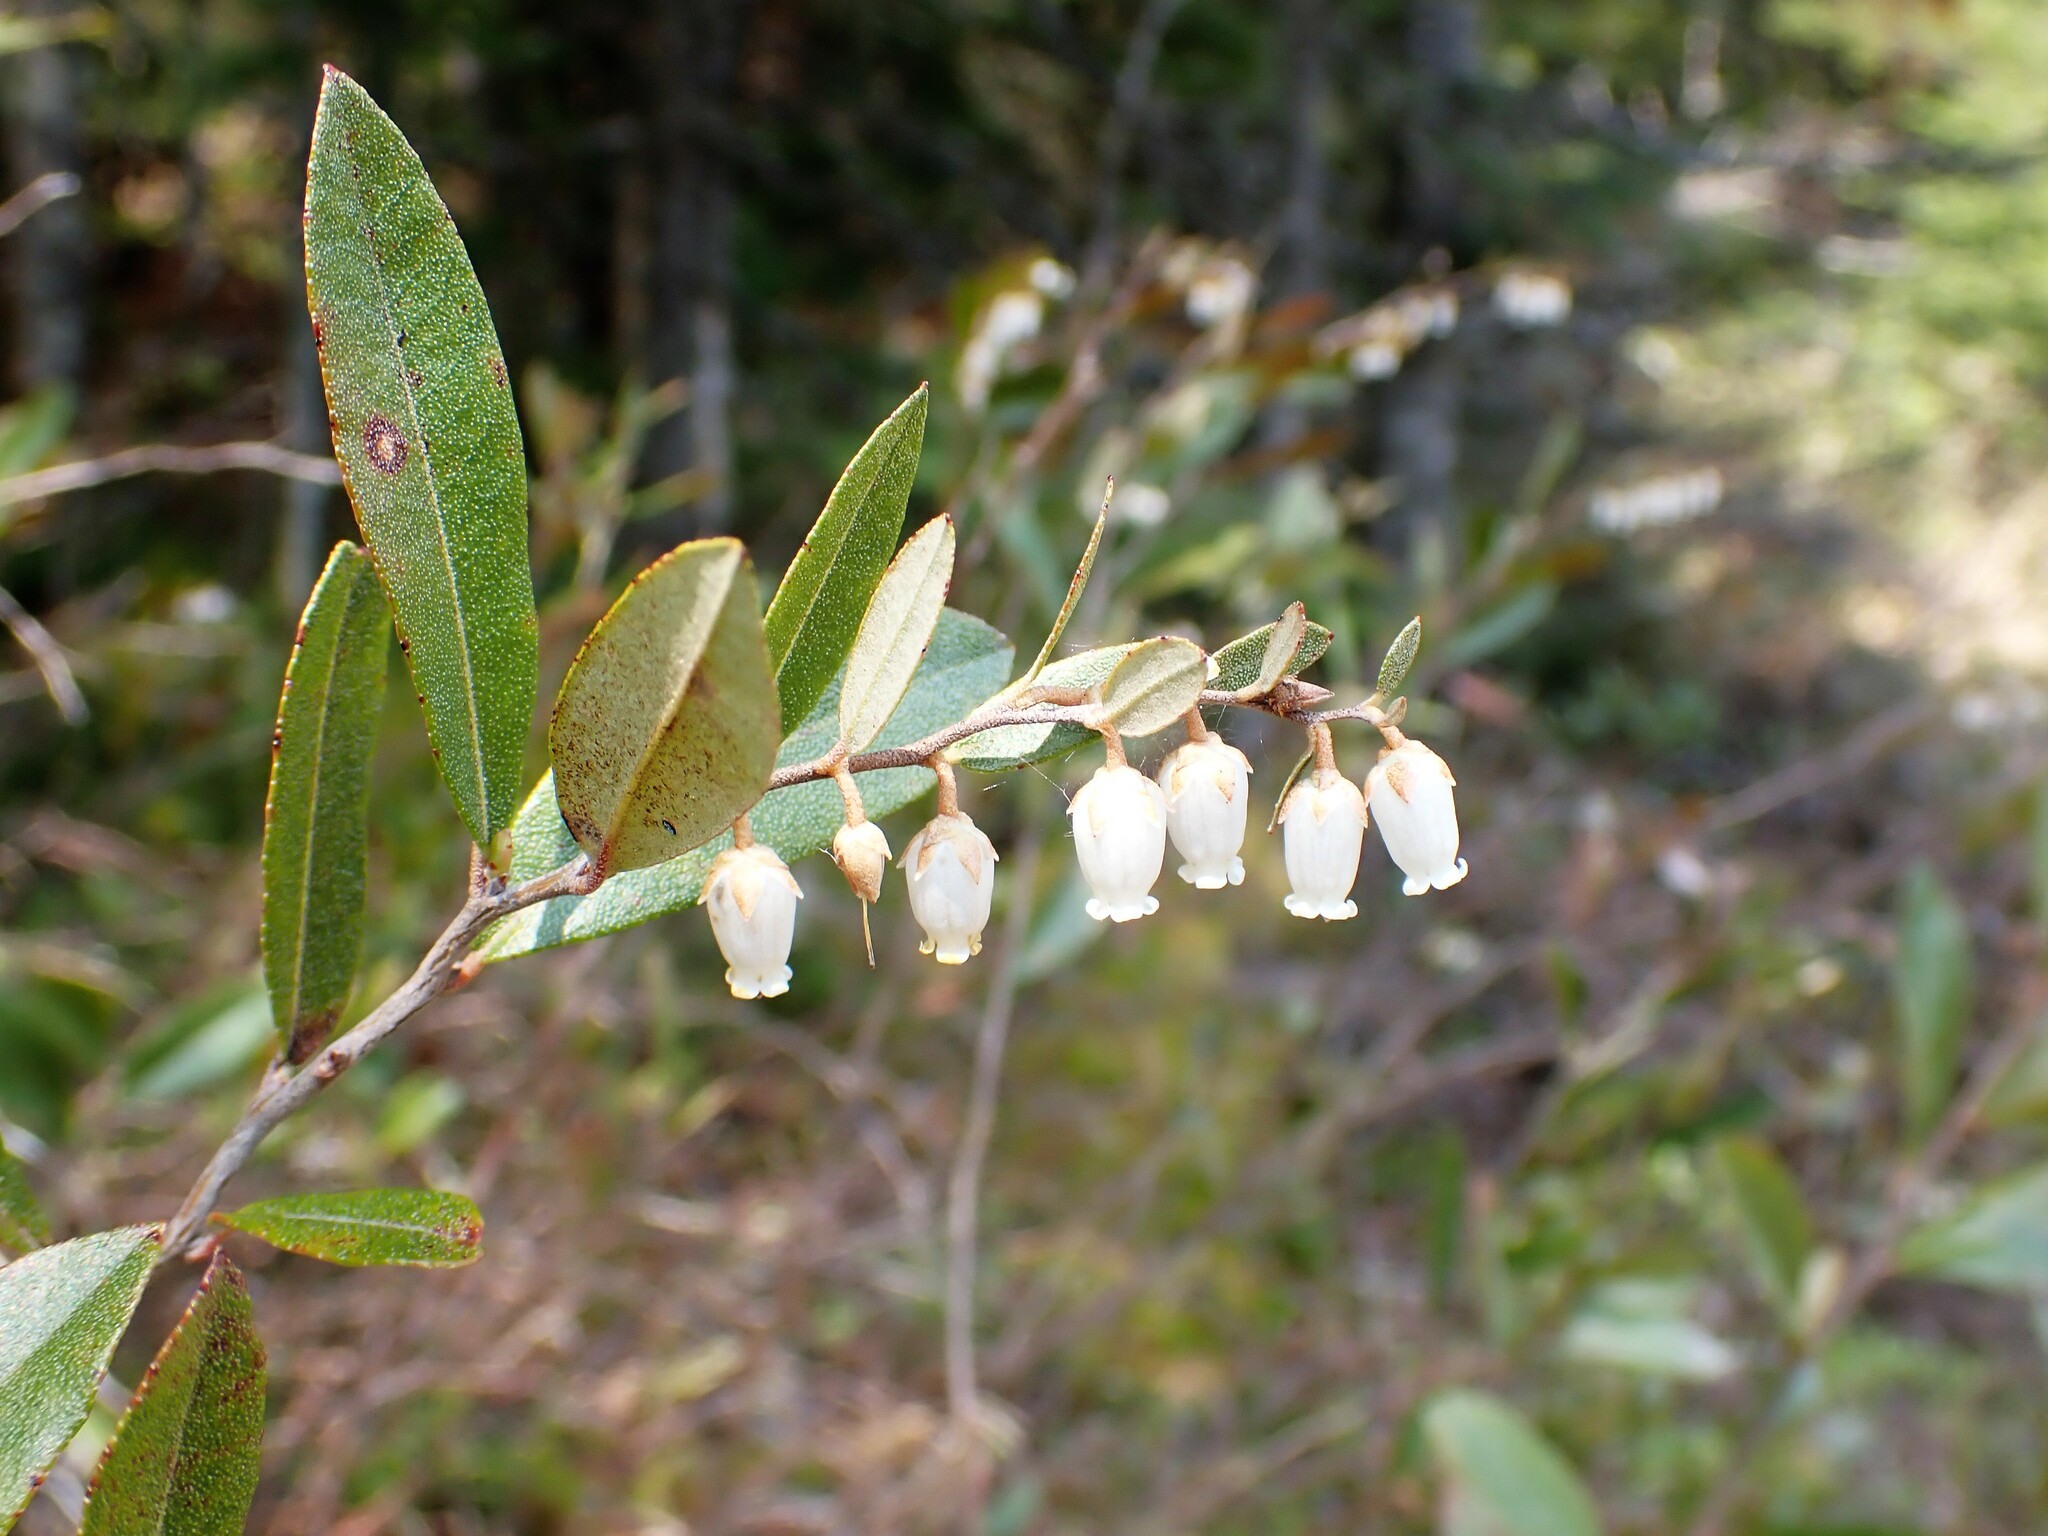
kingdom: Plantae
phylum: Tracheophyta
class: Magnoliopsida
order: Ericales
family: Ericaceae
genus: Chamaedaphne
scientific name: Chamaedaphne calyculata
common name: Leatherleaf
